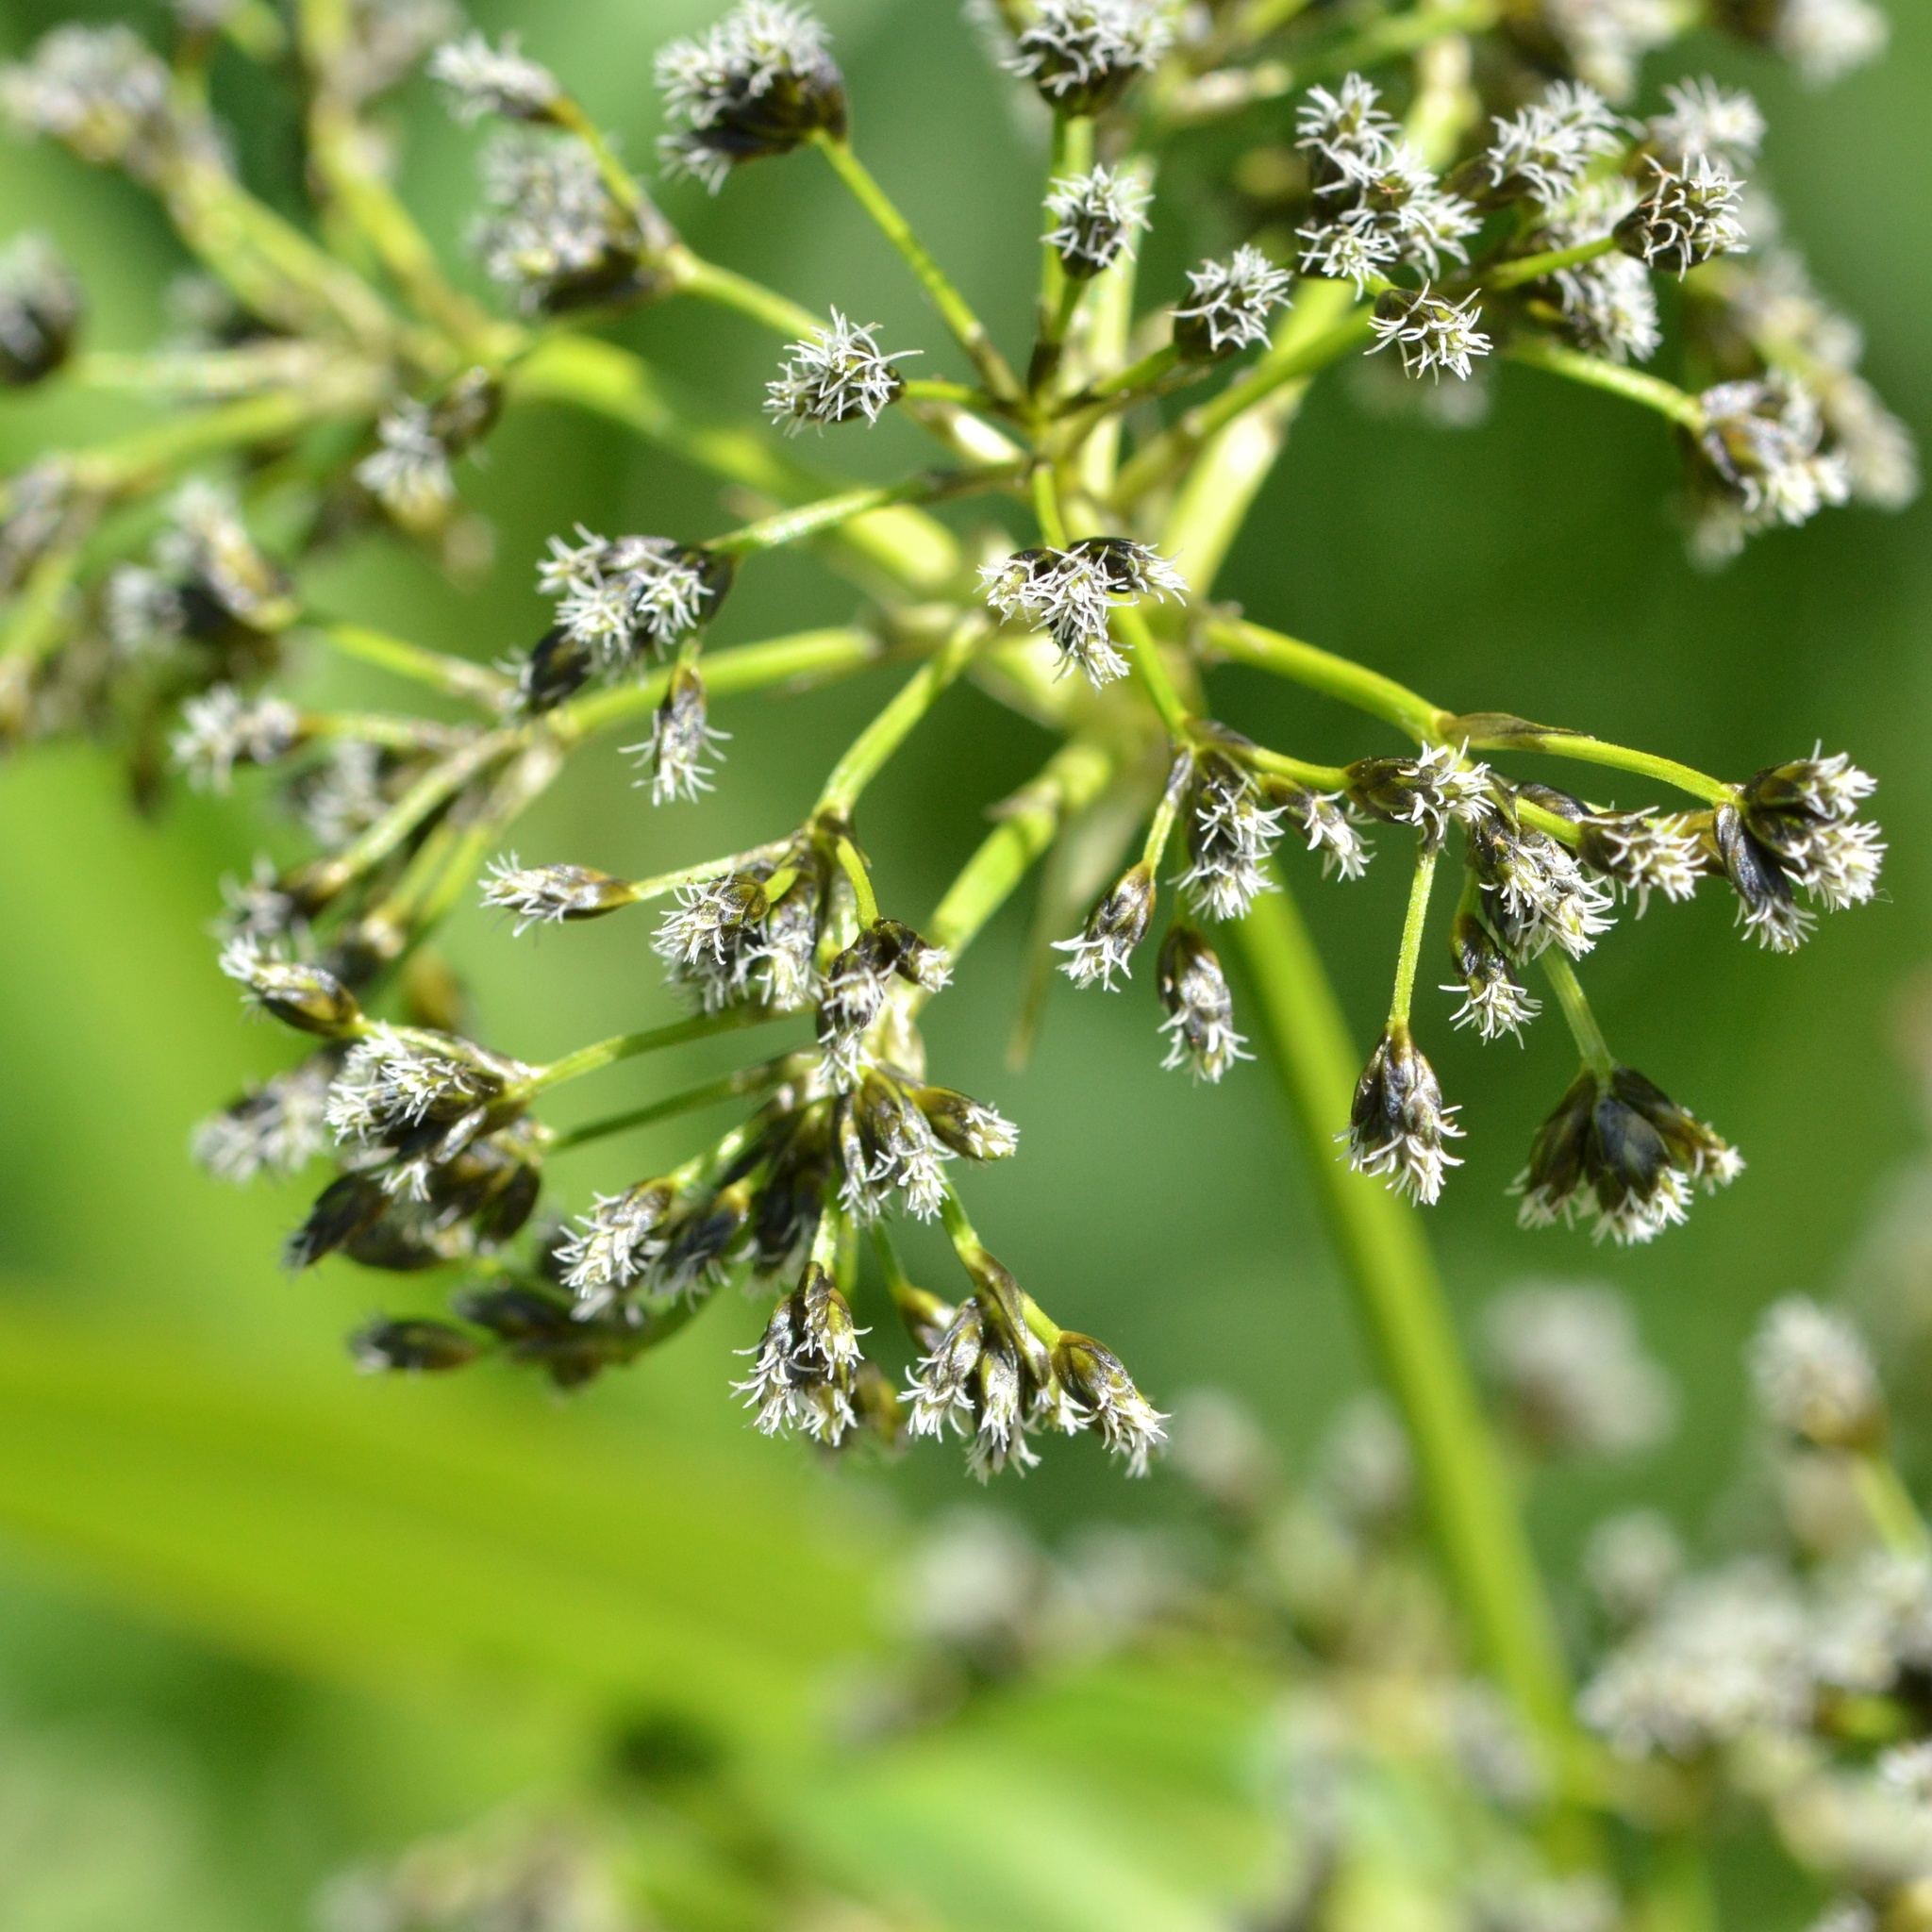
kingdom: Plantae
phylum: Tracheophyta
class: Liliopsida
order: Poales
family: Cyperaceae
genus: Scirpus
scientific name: Scirpus sylvaticus
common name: Wood club-rush
